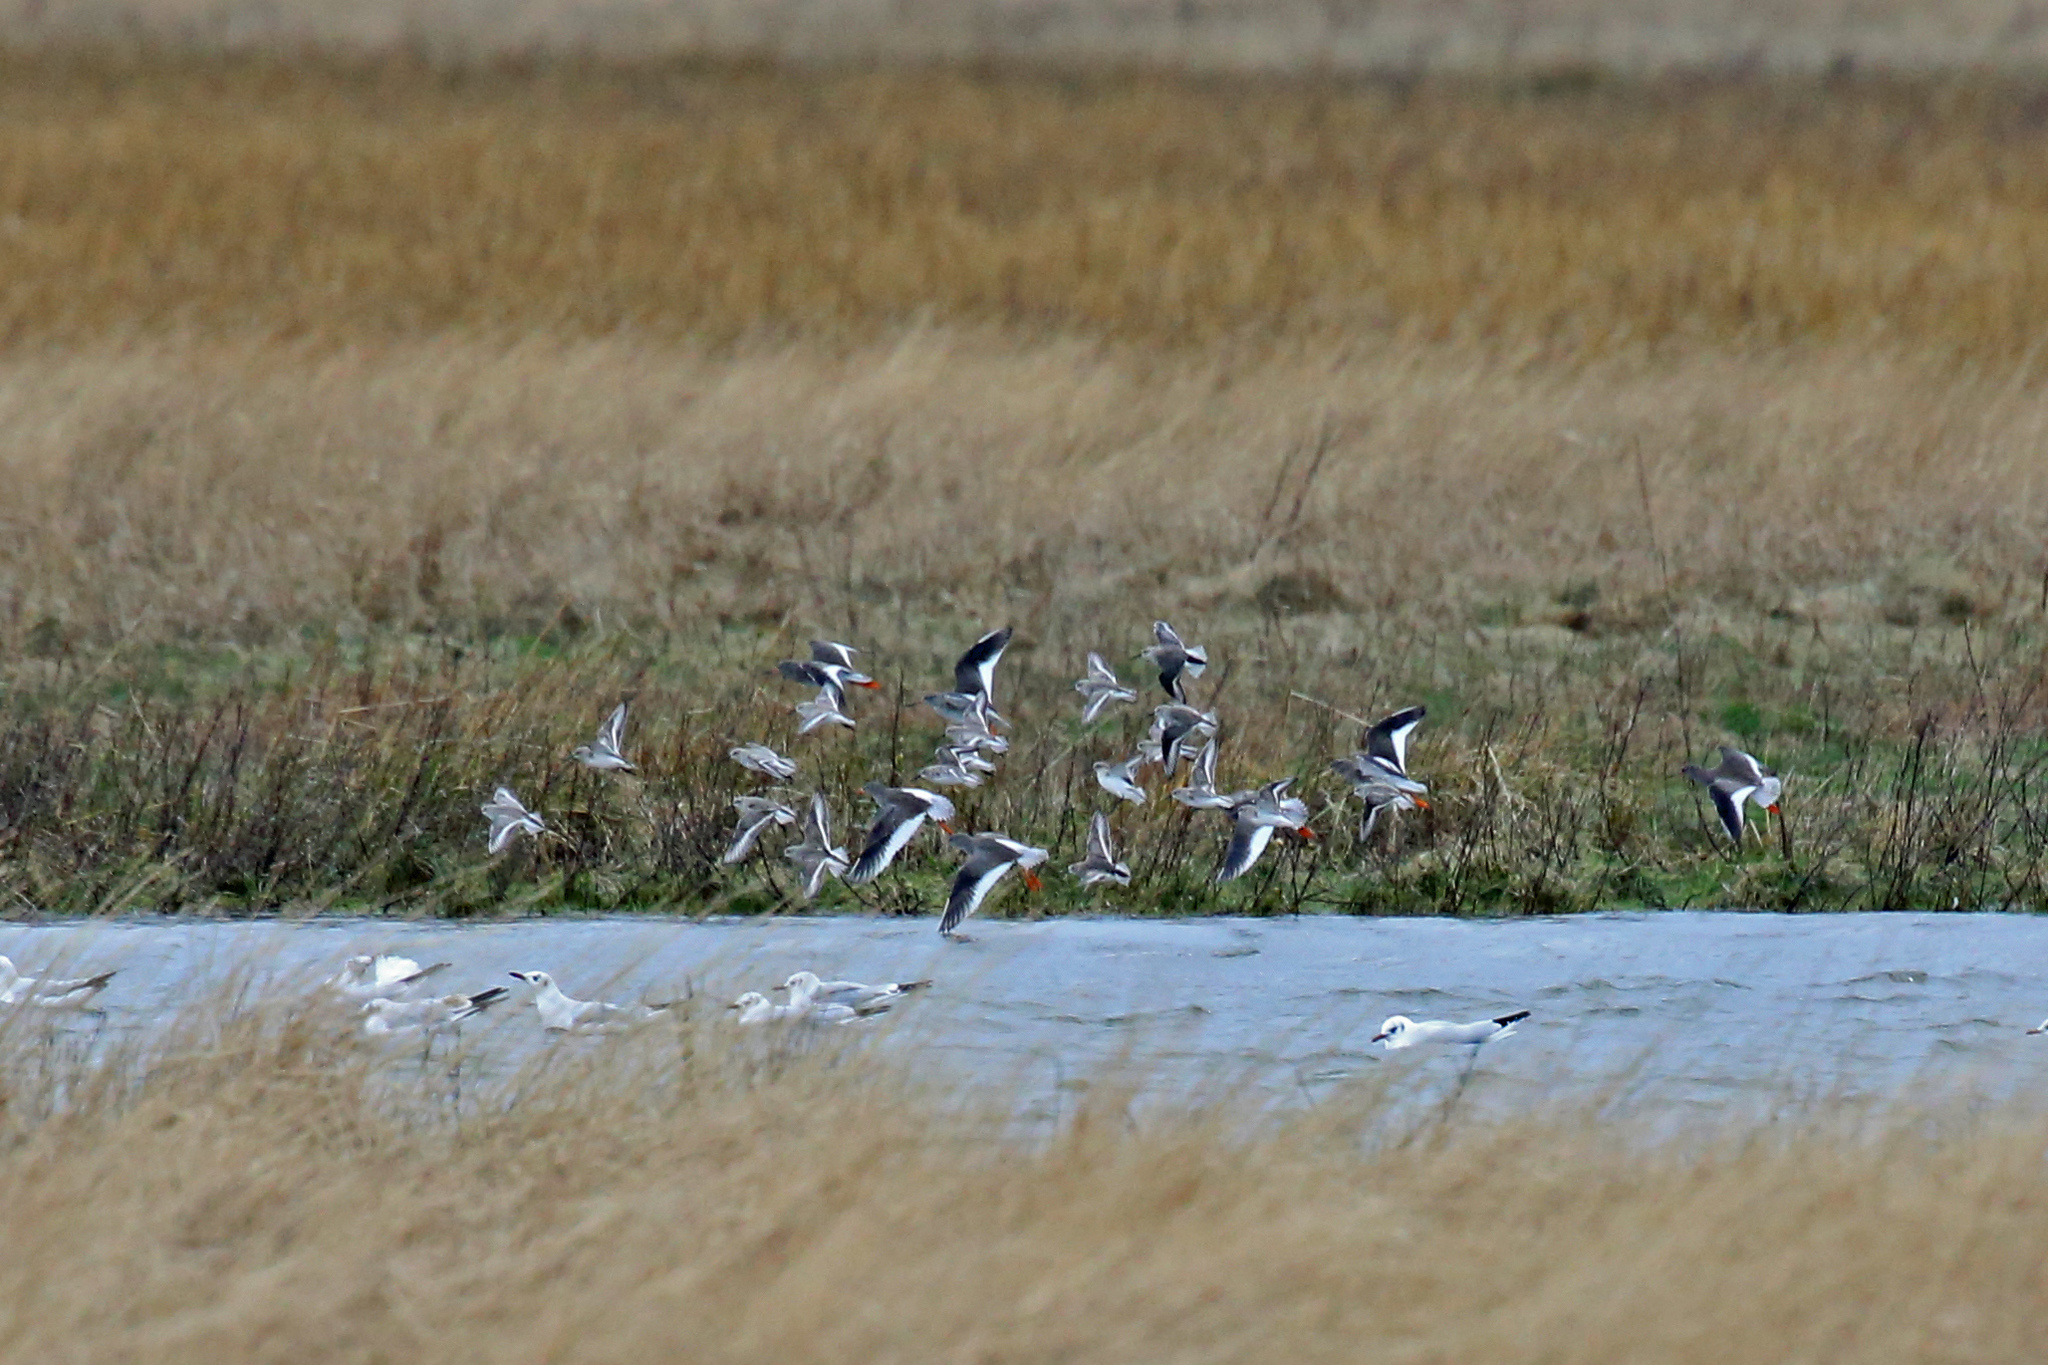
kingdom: Animalia
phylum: Chordata
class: Aves
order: Charadriiformes
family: Scolopacidae
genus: Tringa
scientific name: Tringa totanus
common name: Common redshank
